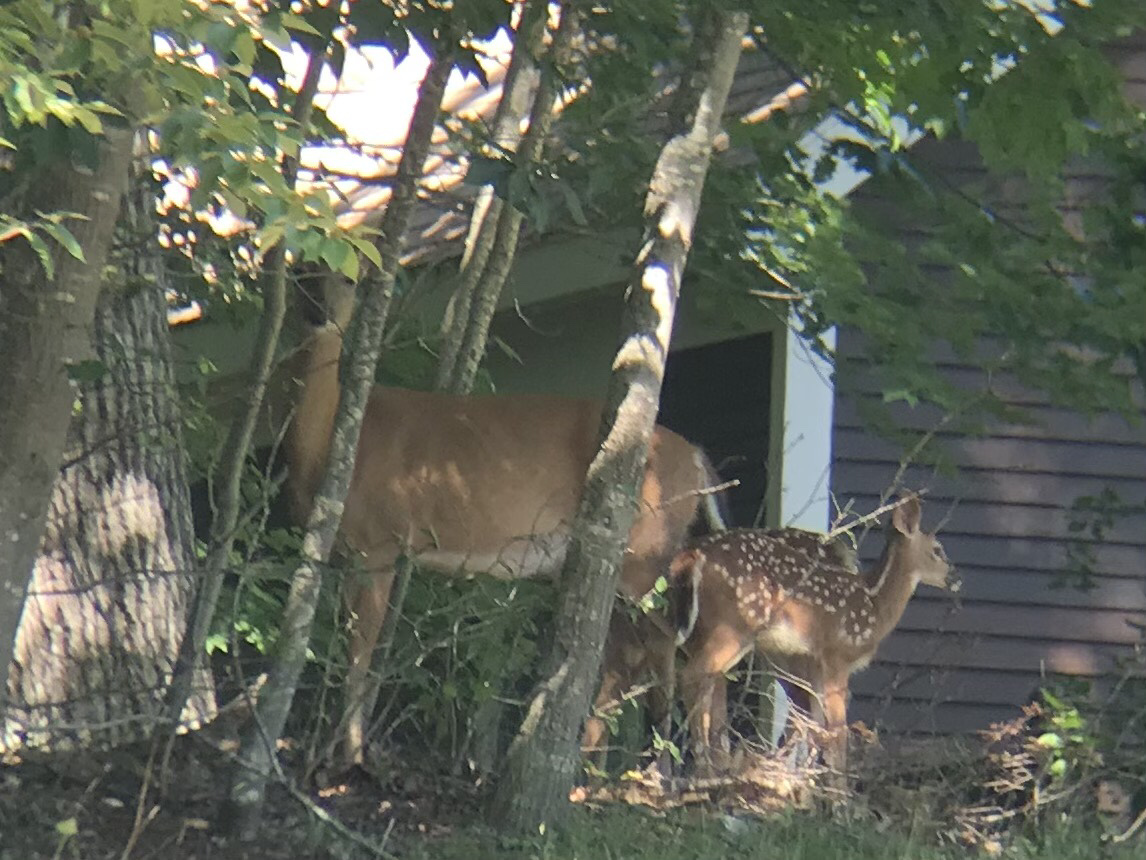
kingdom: Animalia
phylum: Chordata
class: Mammalia
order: Artiodactyla
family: Cervidae
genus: Odocoileus
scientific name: Odocoileus virginianus
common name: White-tailed deer
